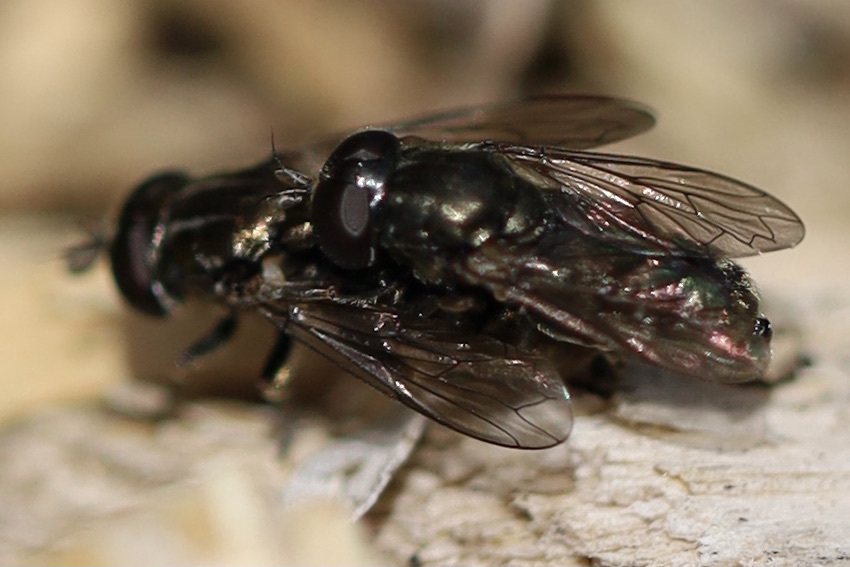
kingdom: Animalia
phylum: Arthropoda
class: Insecta
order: Diptera
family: Syrphidae
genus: Eumerus
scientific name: Eumerus
